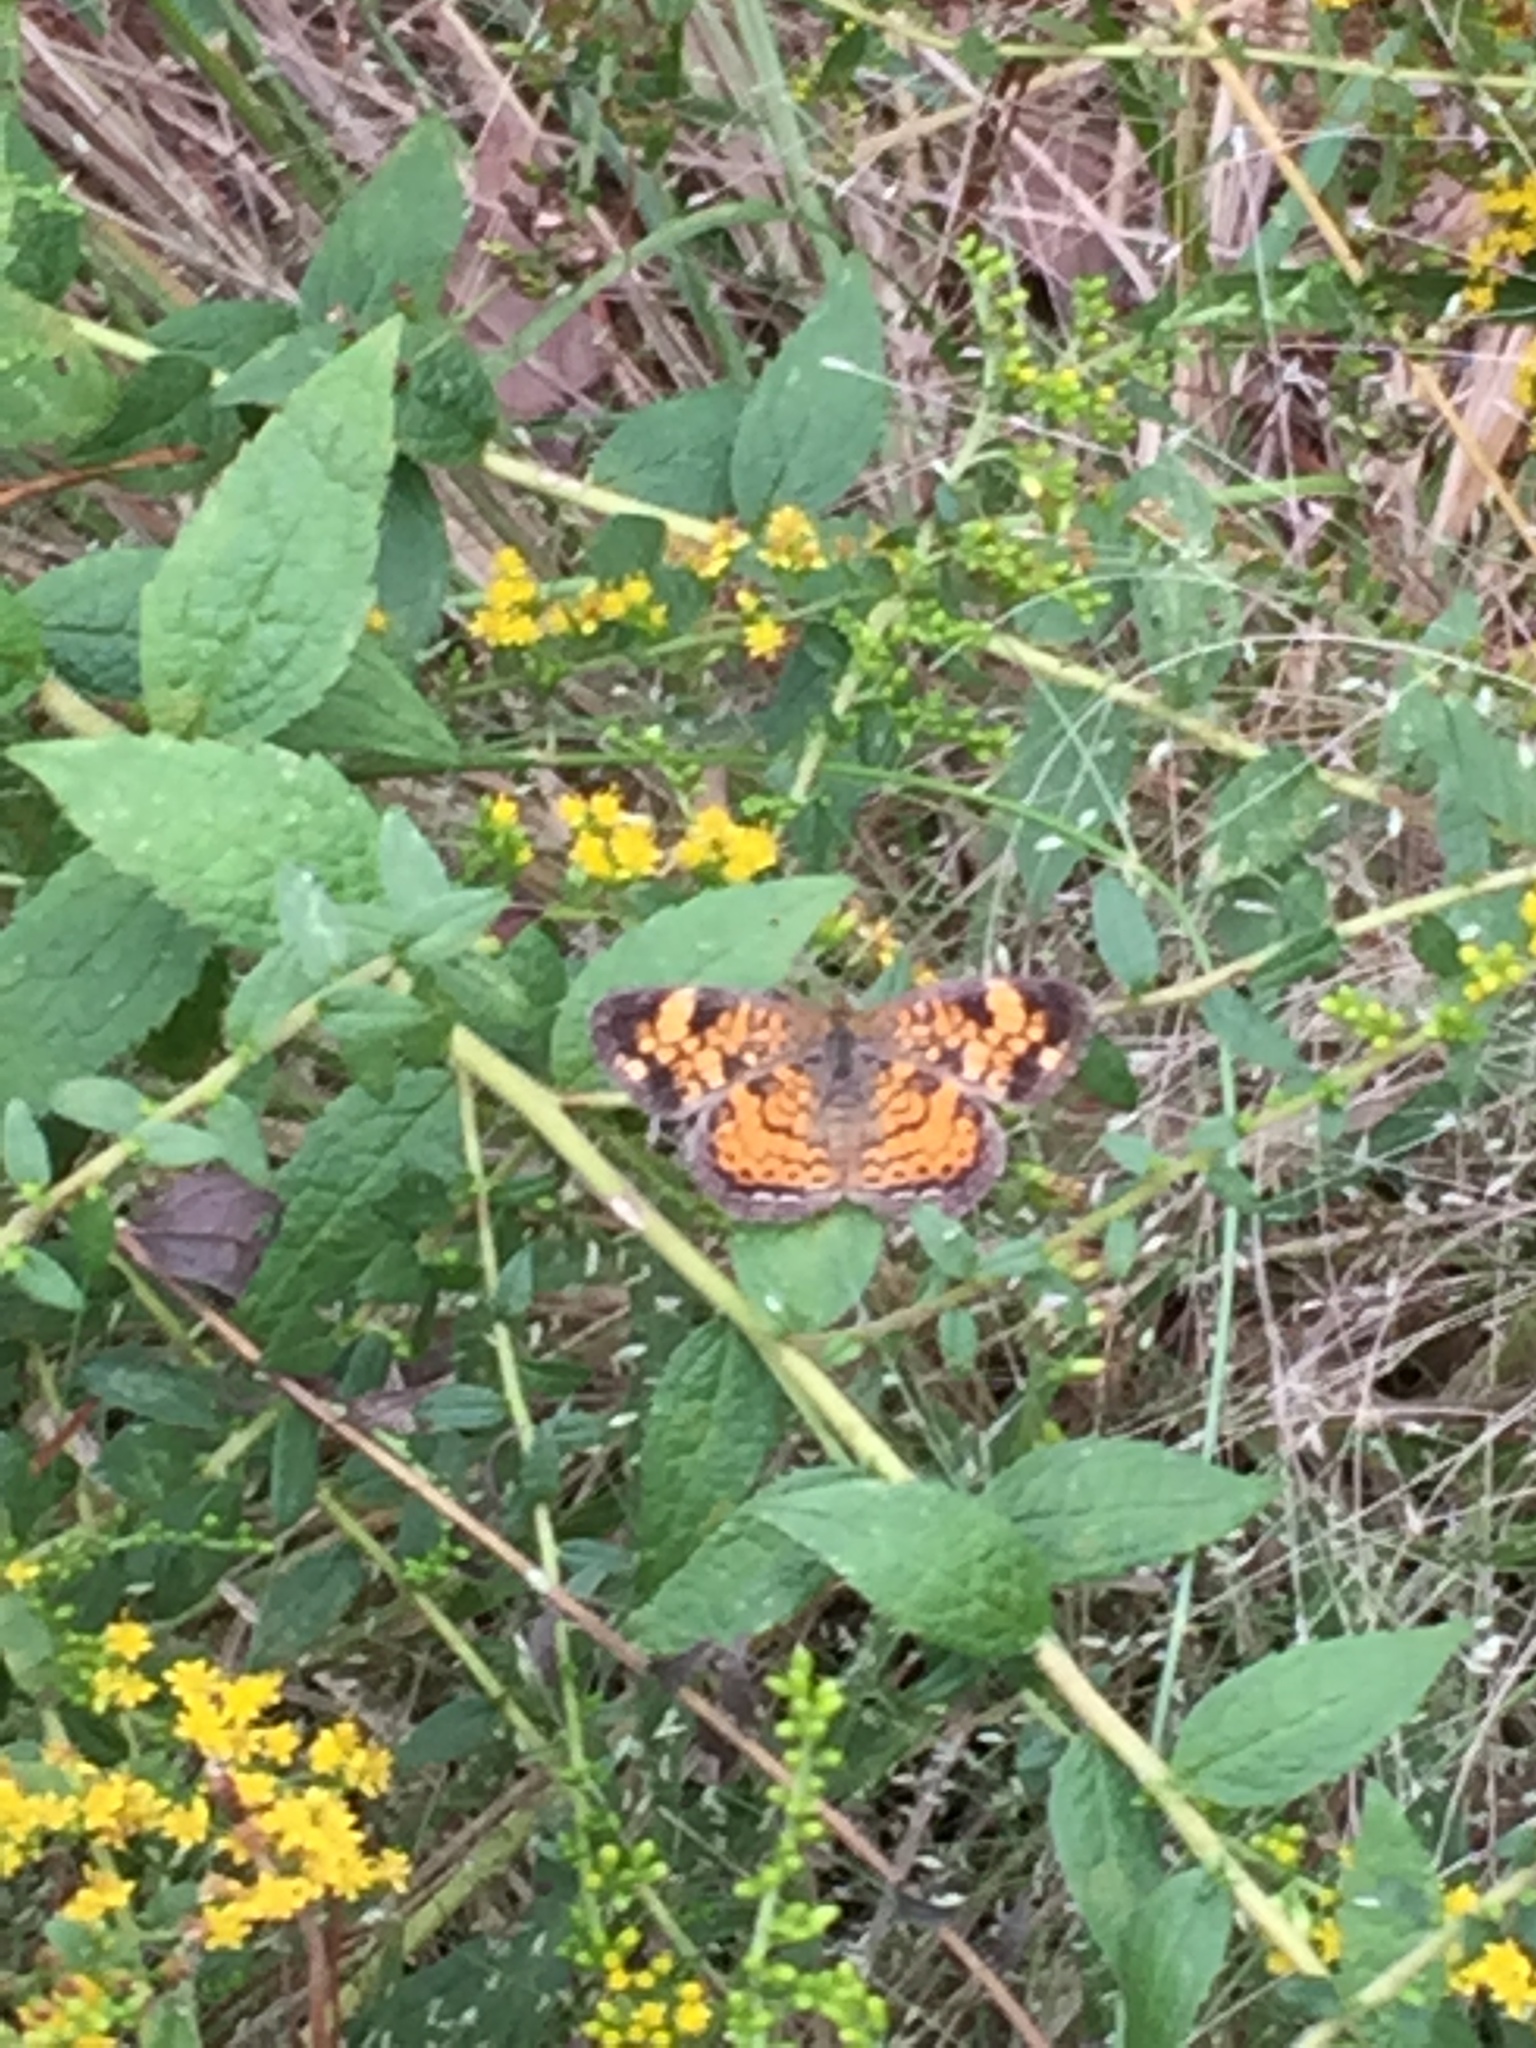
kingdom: Animalia
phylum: Arthropoda
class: Insecta
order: Lepidoptera
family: Nymphalidae
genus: Phyciodes
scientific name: Phyciodes tharos
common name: Pearl crescent
